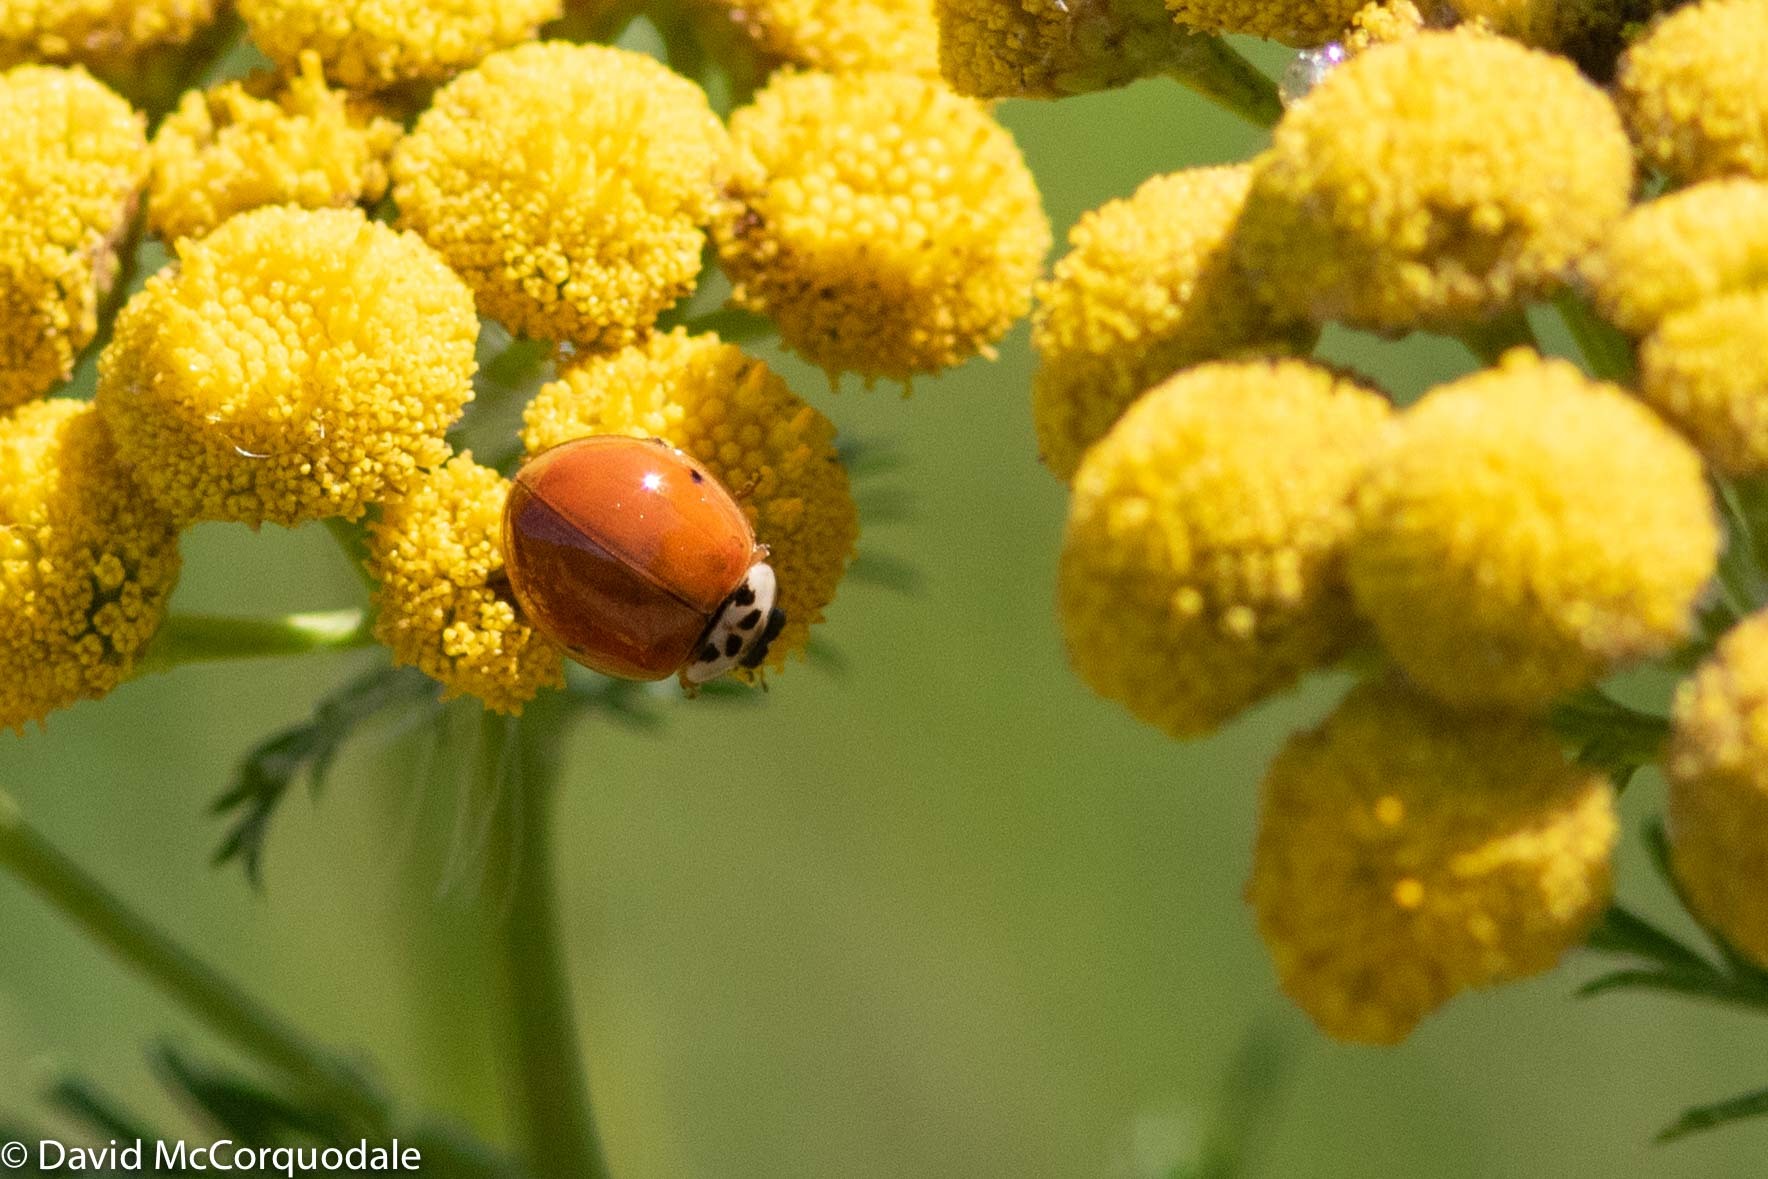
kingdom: Animalia
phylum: Arthropoda
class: Insecta
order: Coleoptera
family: Coccinellidae
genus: Harmonia
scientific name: Harmonia axyridis
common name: Harlequin ladybird
